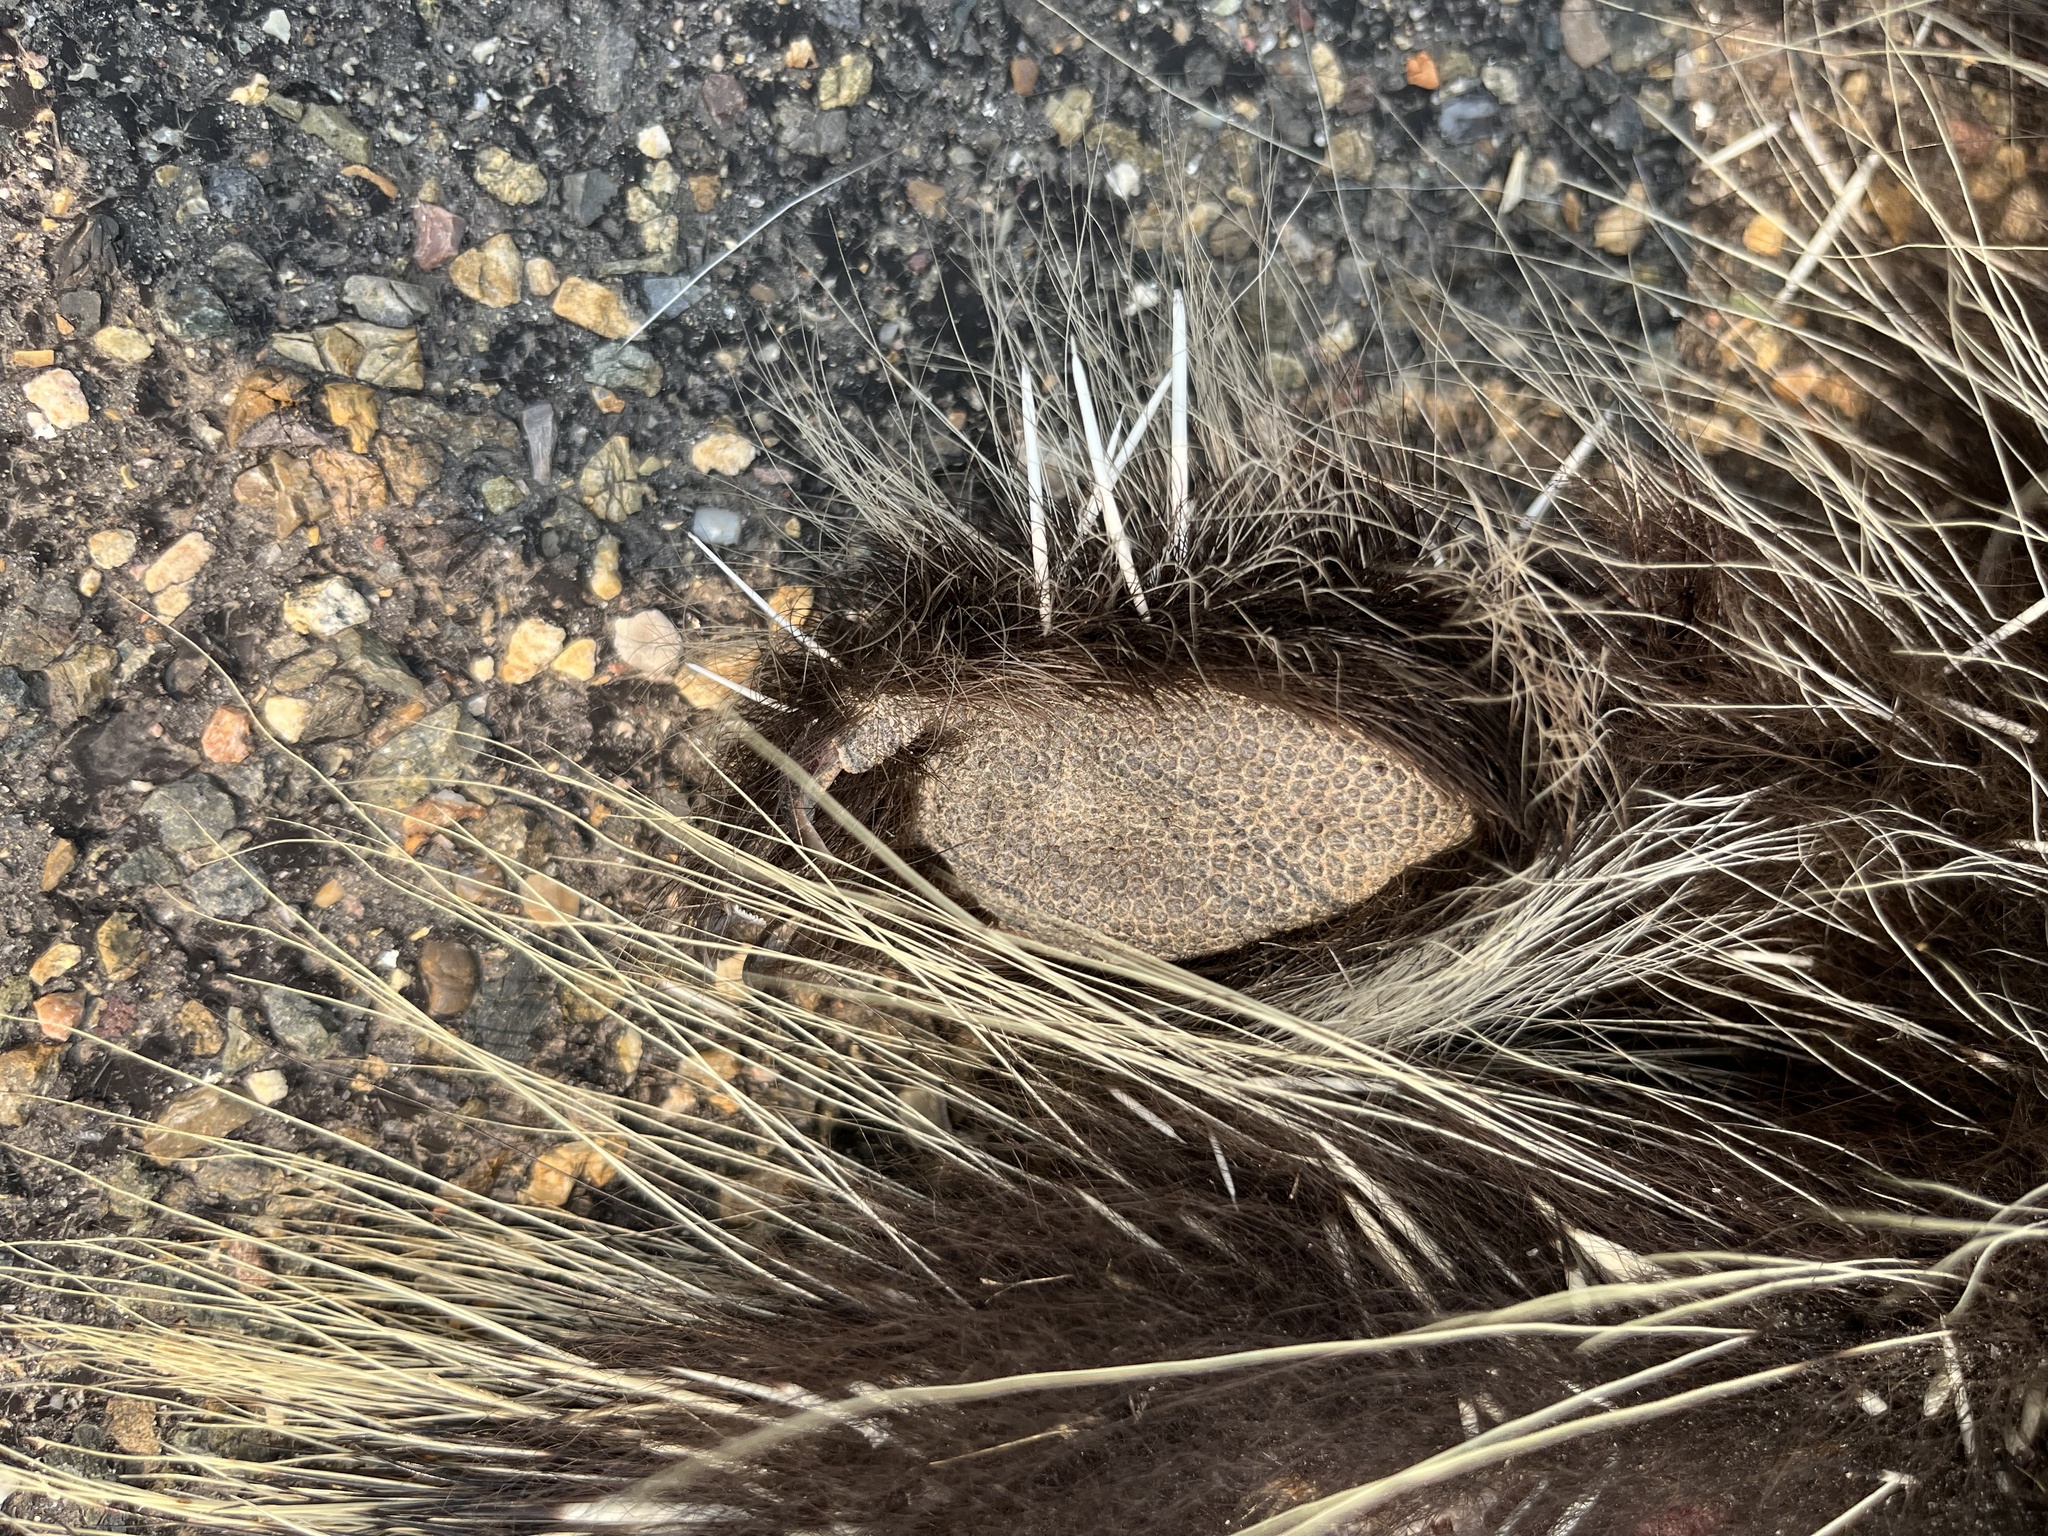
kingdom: Animalia
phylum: Chordata
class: Mammalia
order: Rodentia
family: Erethizontidae
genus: Erethizon
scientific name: Erethizon dorsatus
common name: North american porcupine
